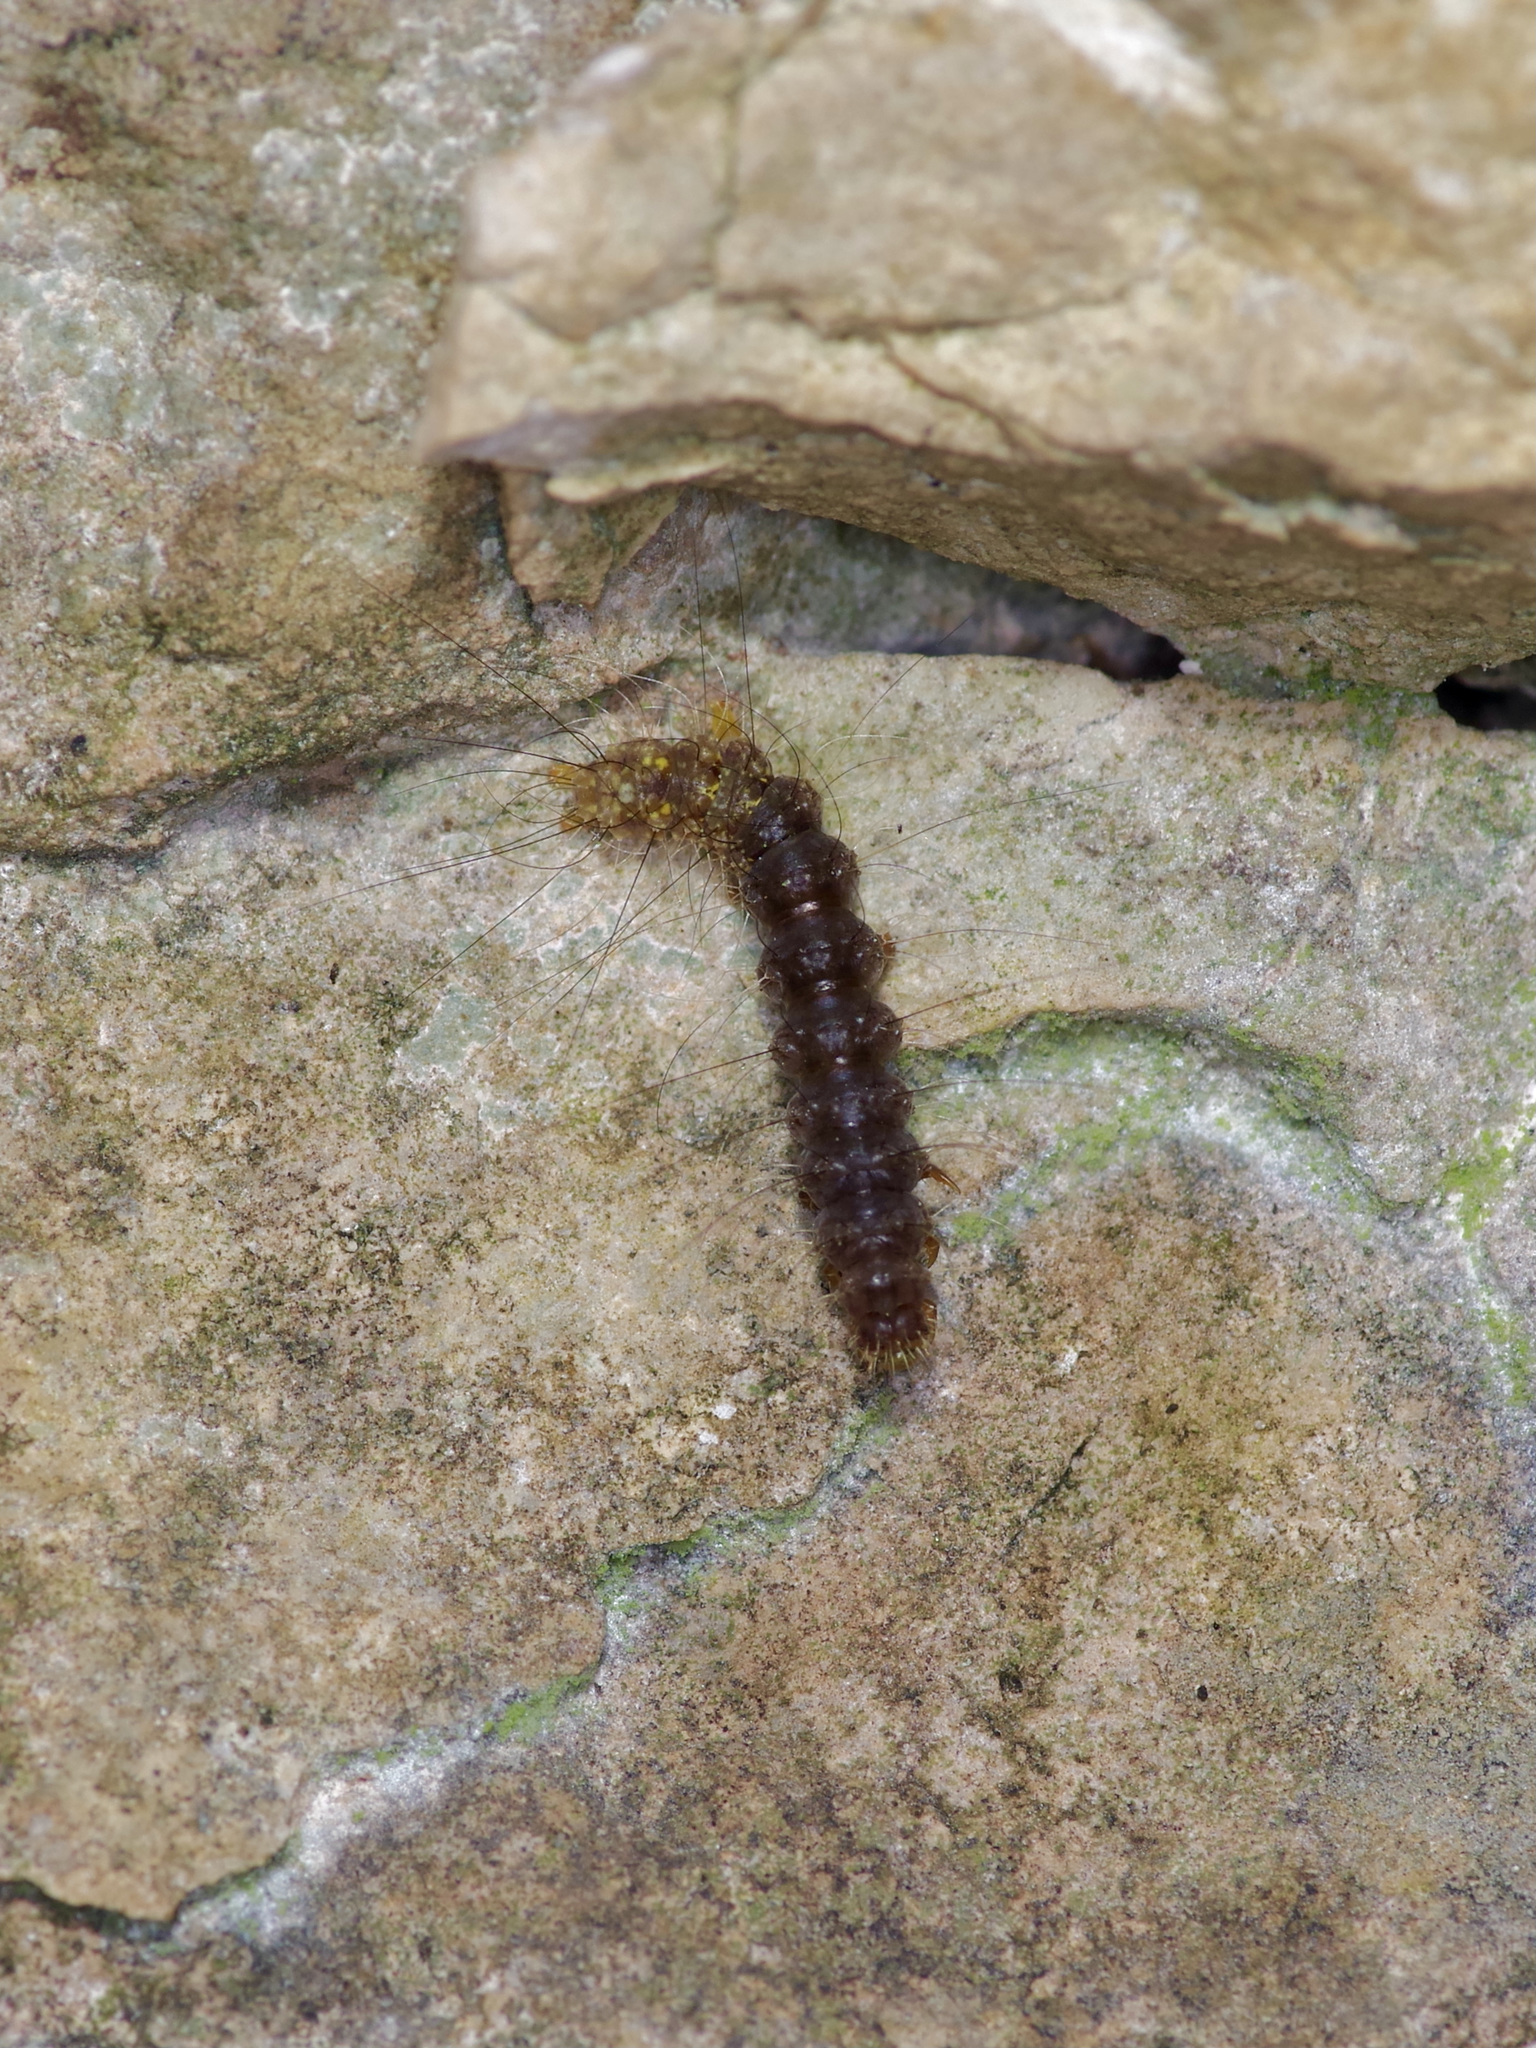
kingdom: Animalia
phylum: Arthropoda
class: Insecta
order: Lepidoptera
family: Erebidae
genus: Lycomorpha
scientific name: Lycomorpha pholus
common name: Black-and-yellow lichen moth
